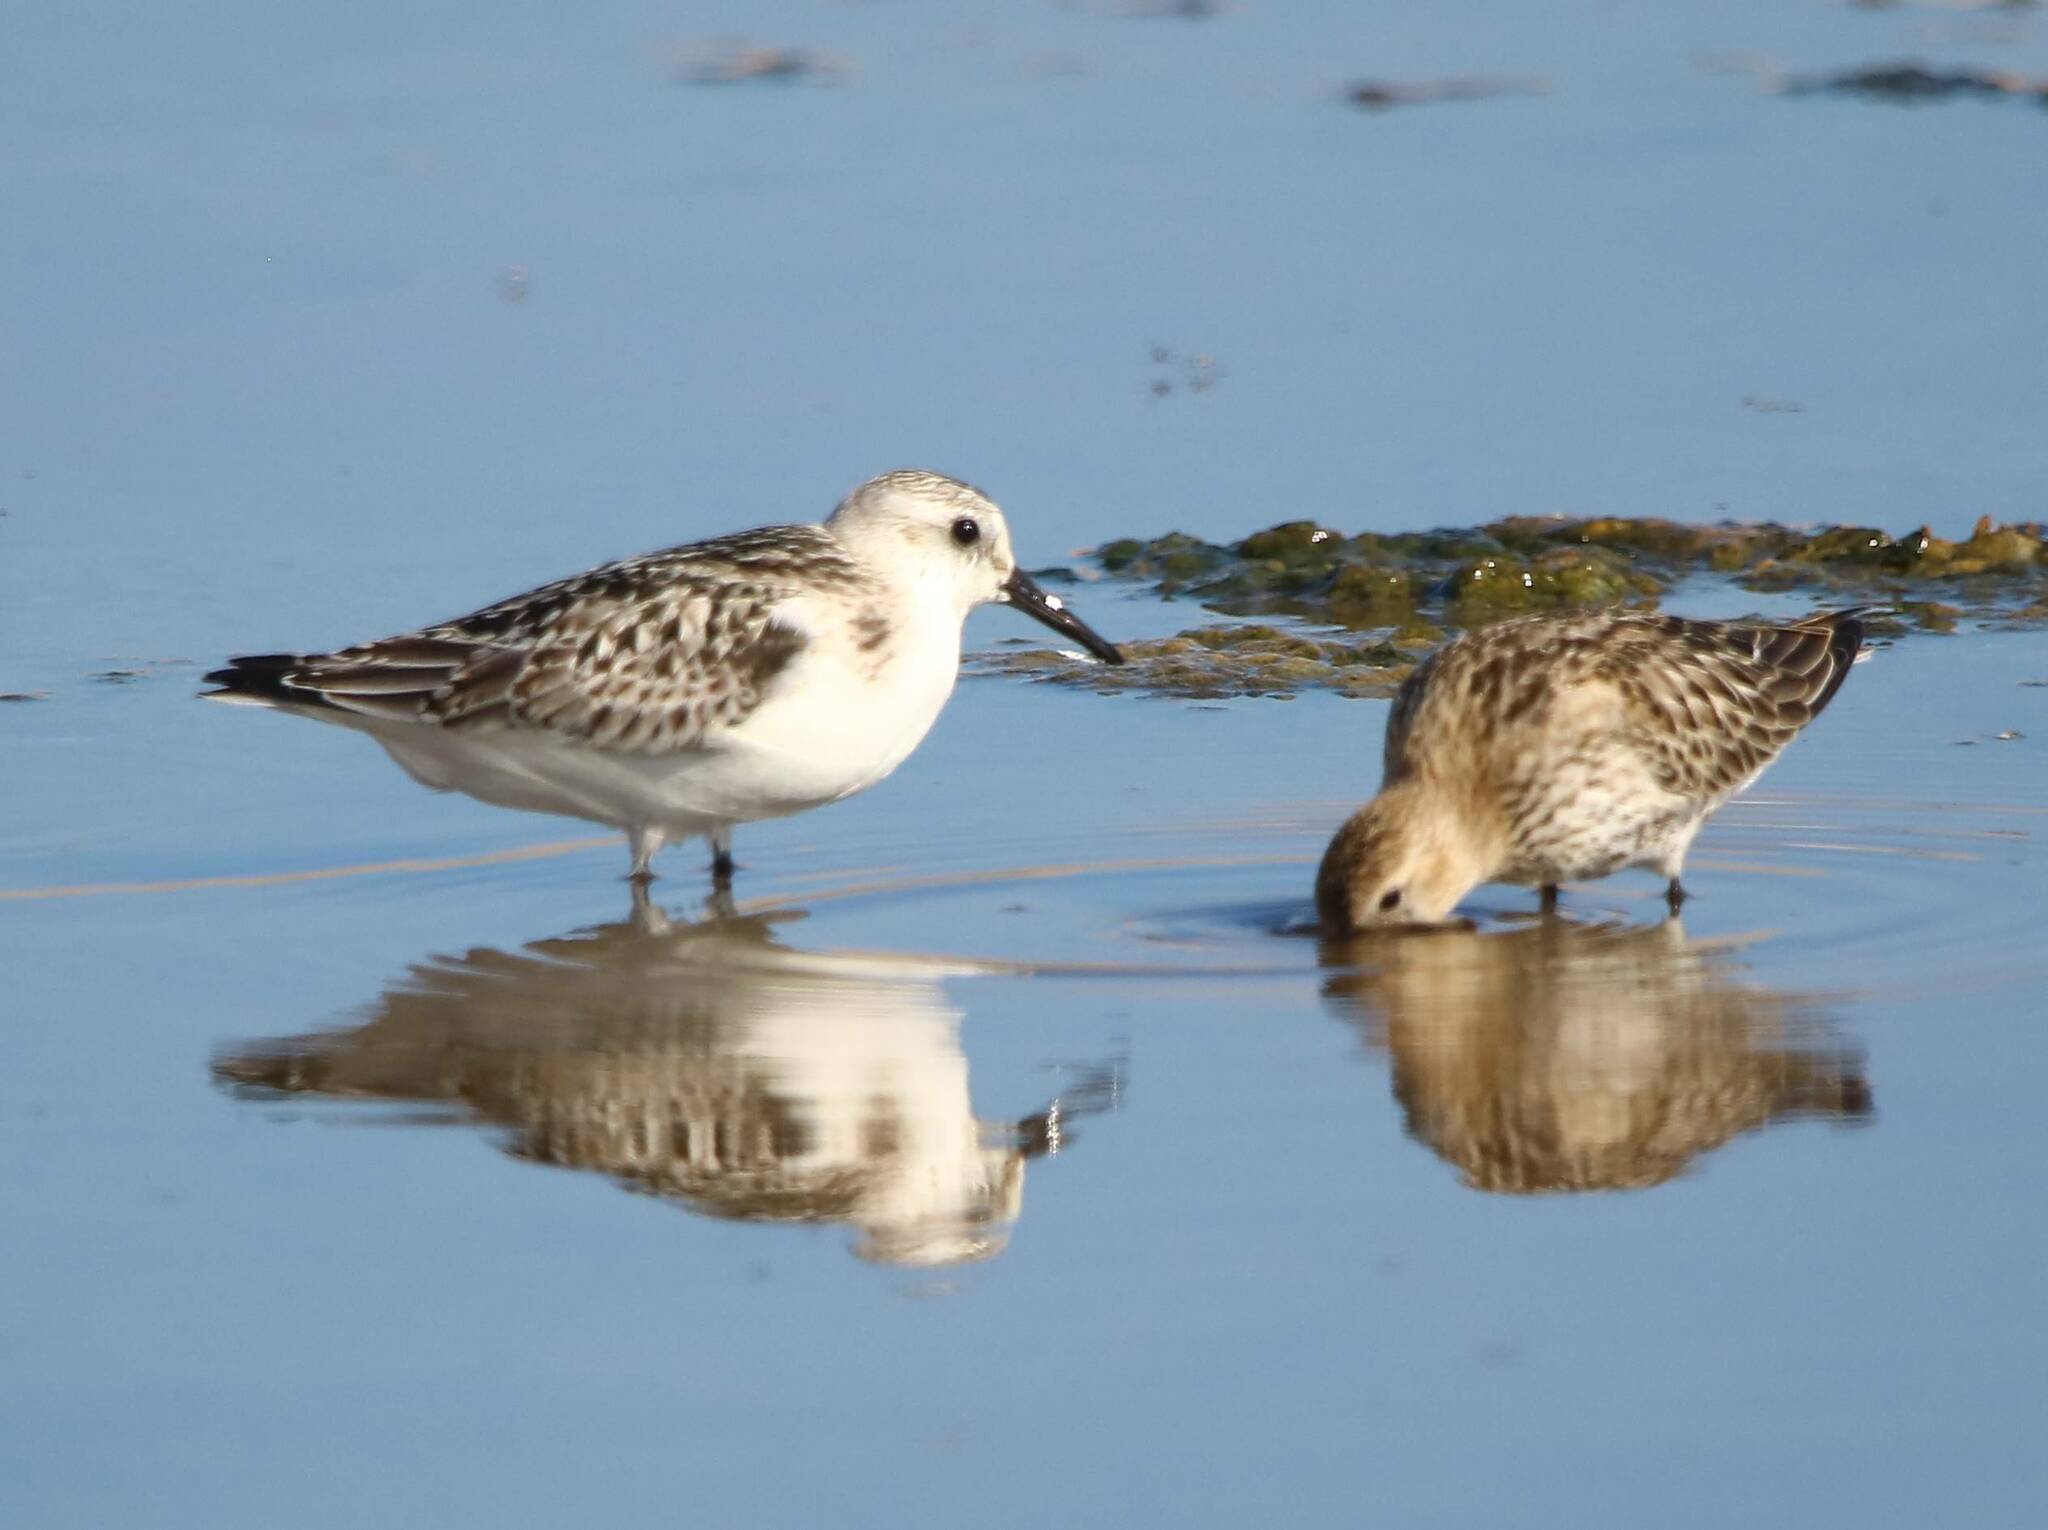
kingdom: Animalia
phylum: Chordata
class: Aves
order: Charadriiformes
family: Scolopacidae
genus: Calidris
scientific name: Calidris alba
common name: Sanderling
